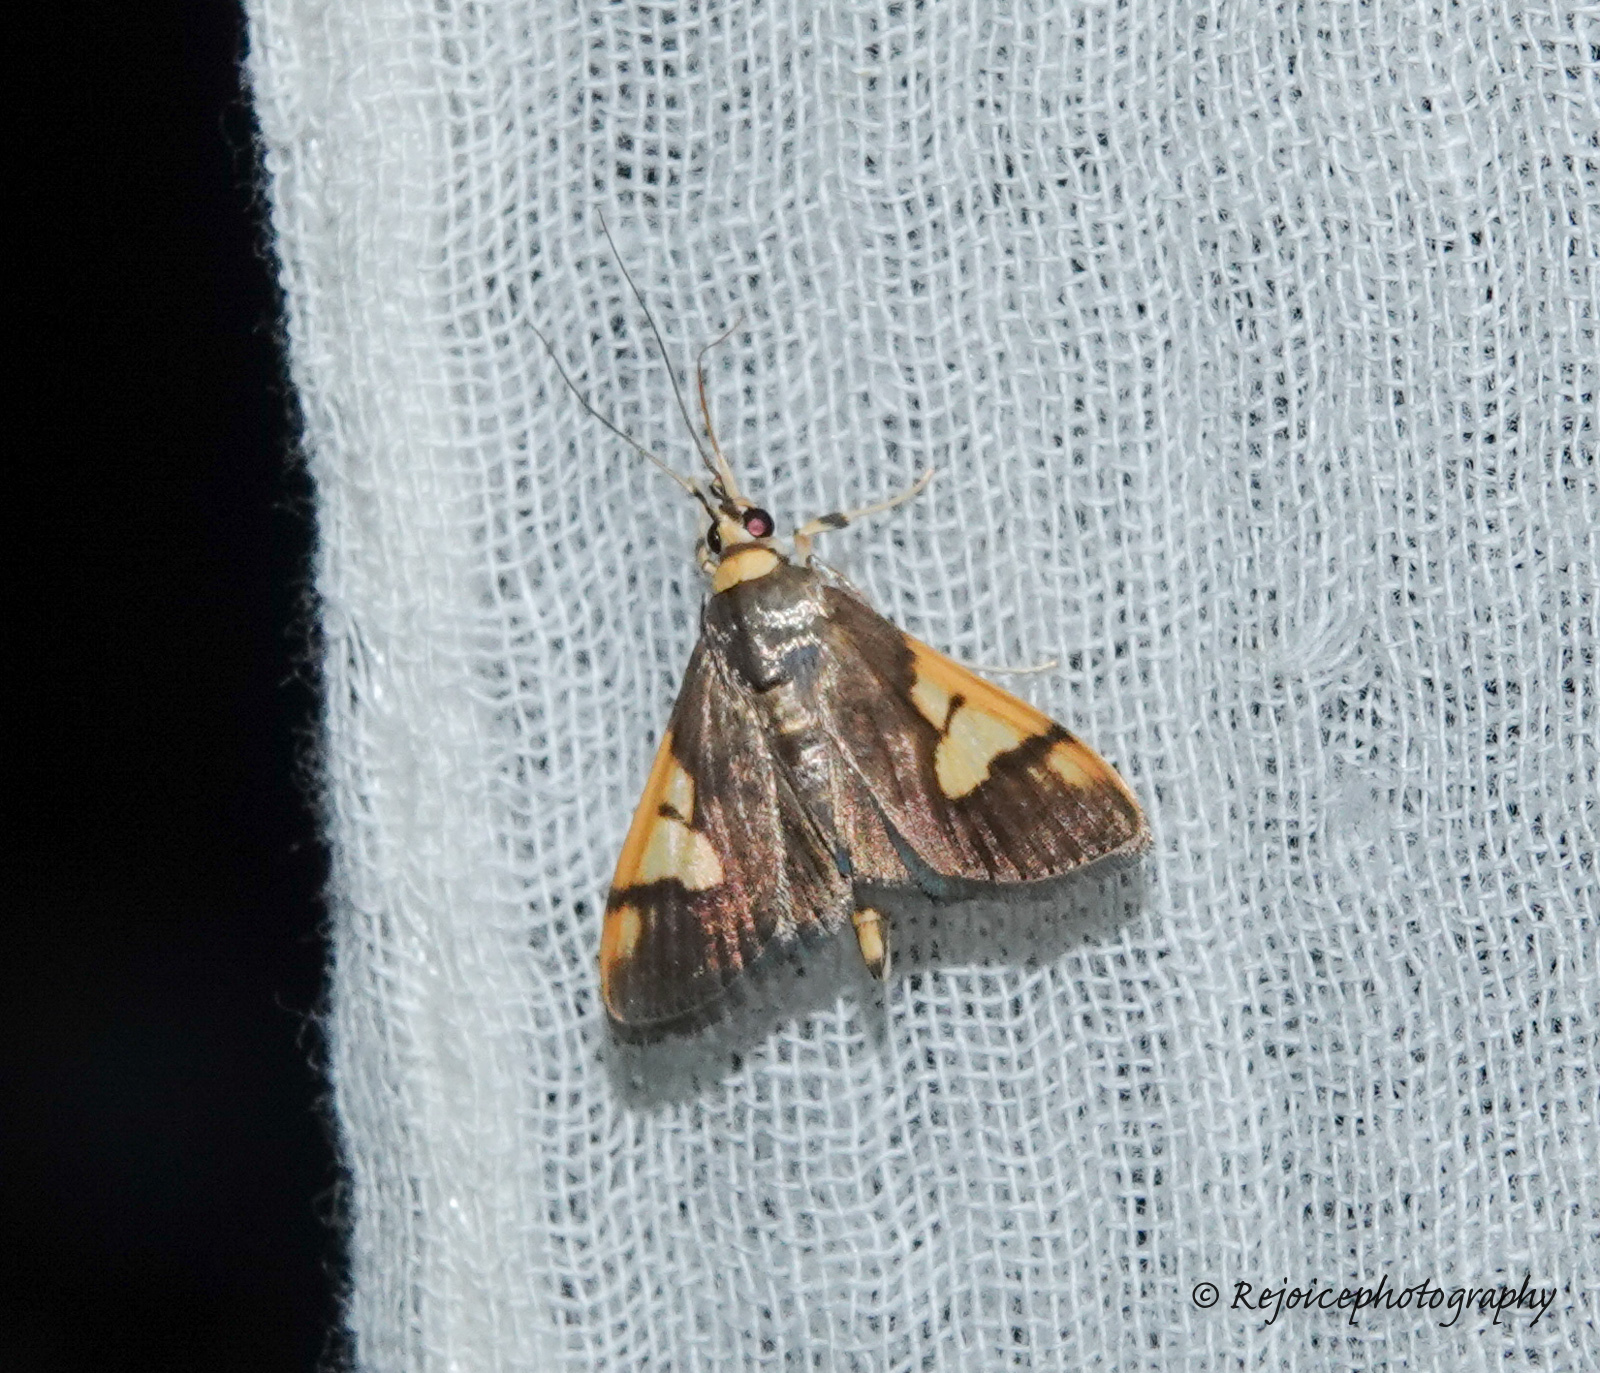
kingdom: Animalia
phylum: Arthropoda
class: Insecta
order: Lepidoptera
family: Crambidae
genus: Ulopeza
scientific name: Ulopeza idyalis
